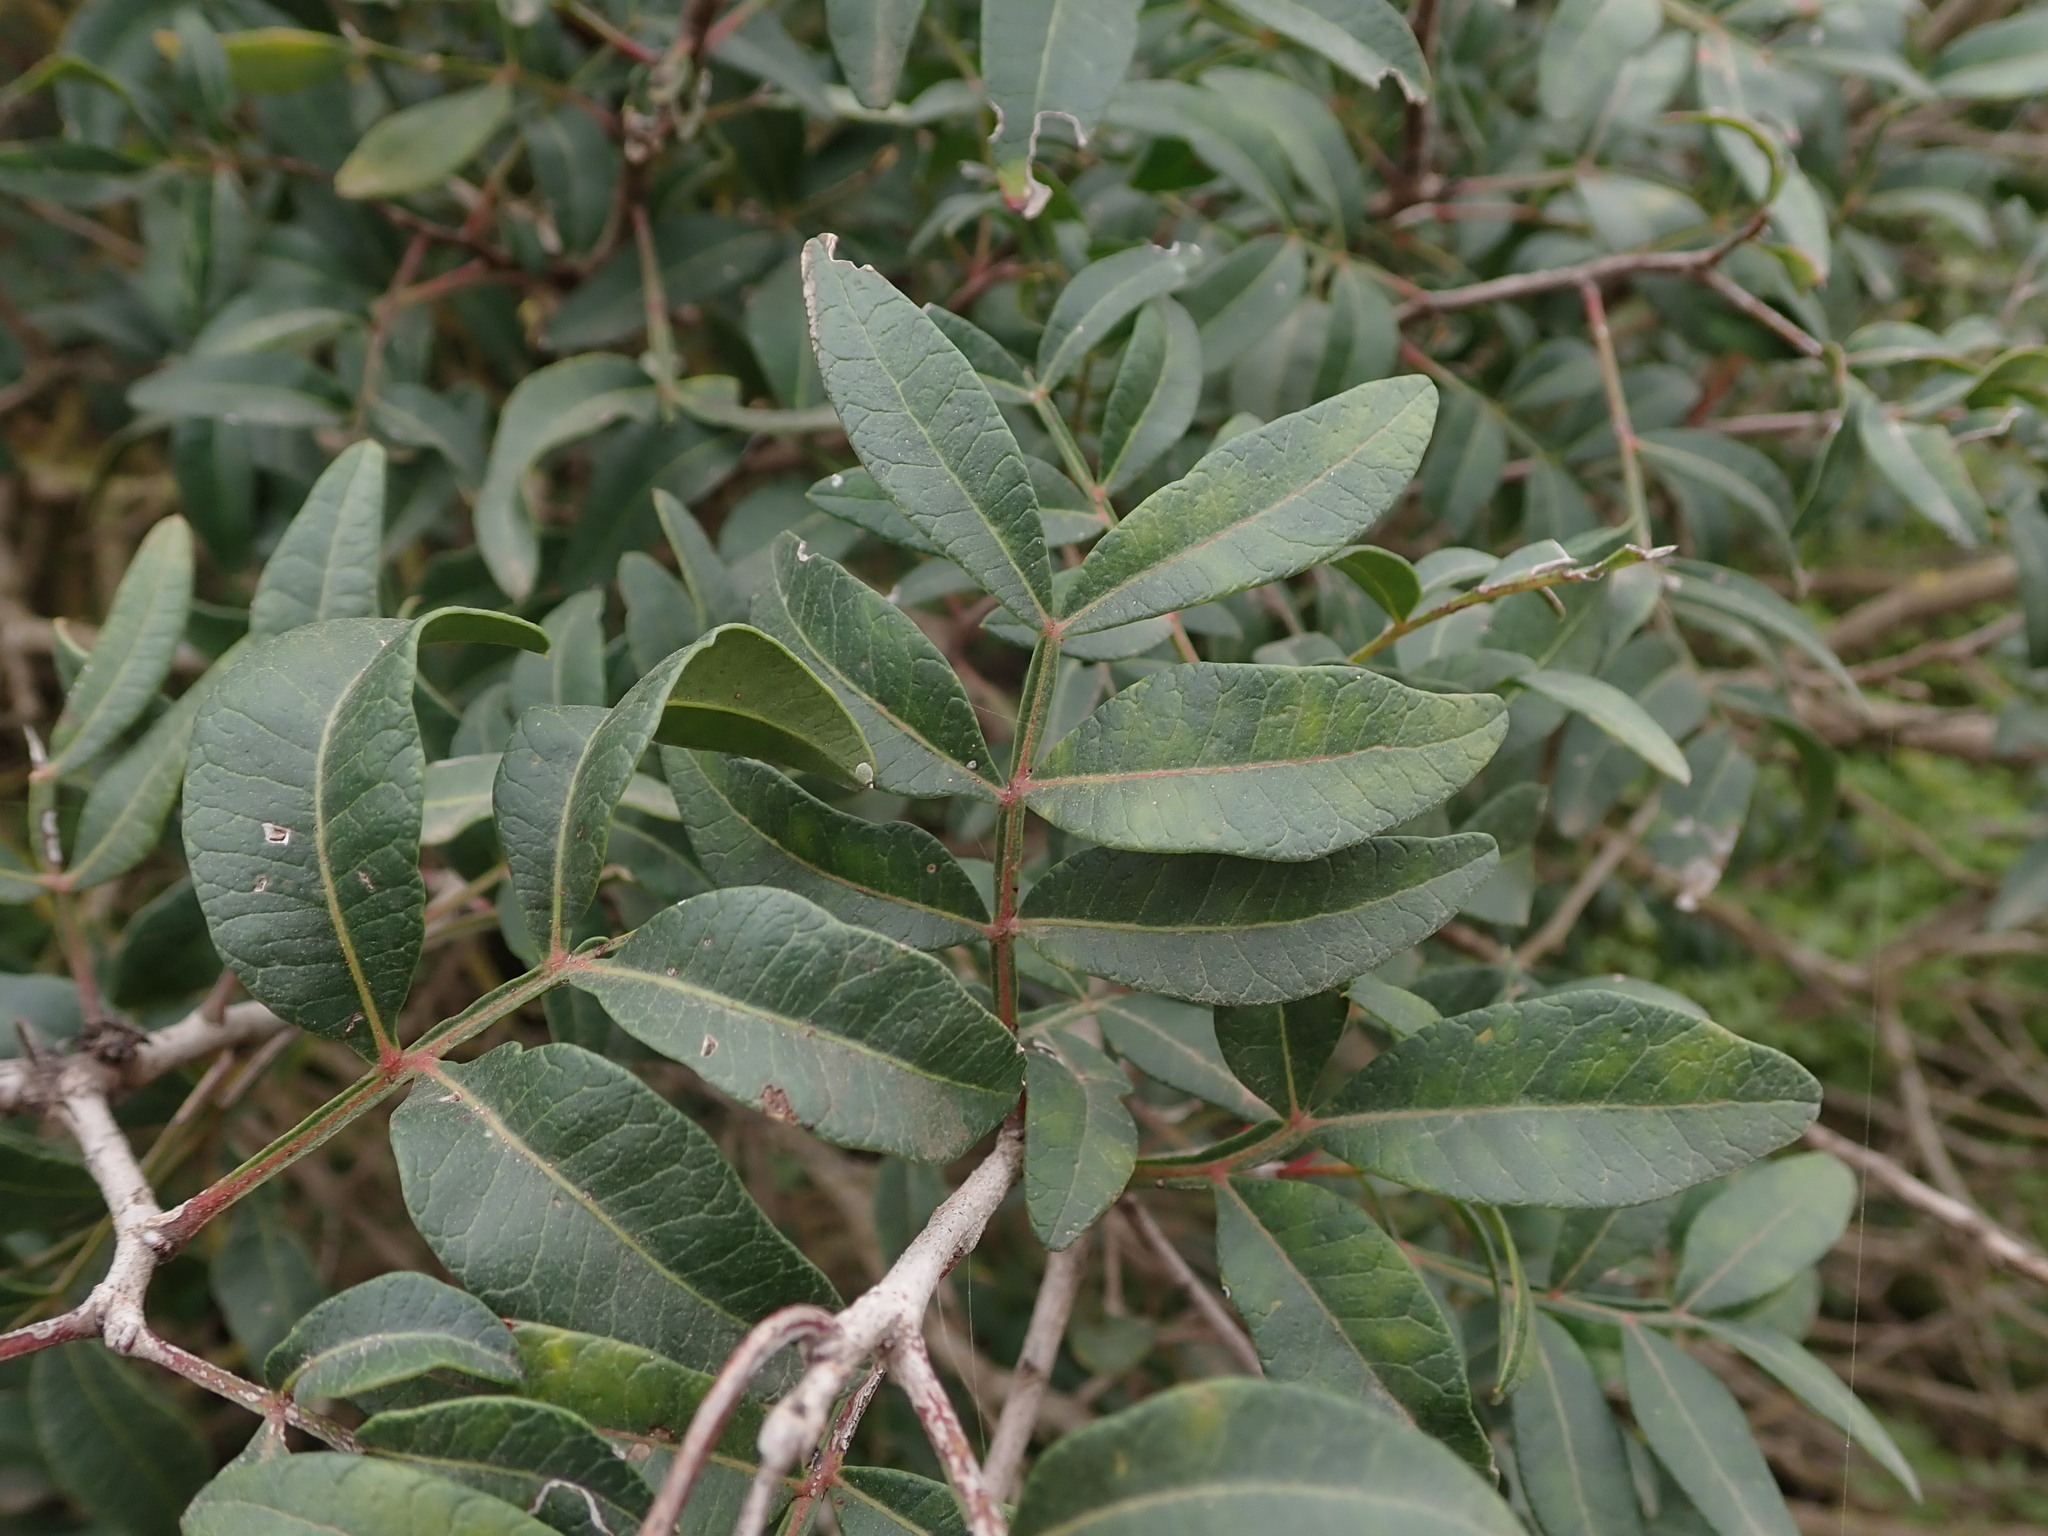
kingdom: Plantae
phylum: Tracheophyta
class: Magnoliopsida
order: Sapindales
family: Anacardiaceae
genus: Pistacia
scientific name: Pistacia lentiscus
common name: Lentisk
